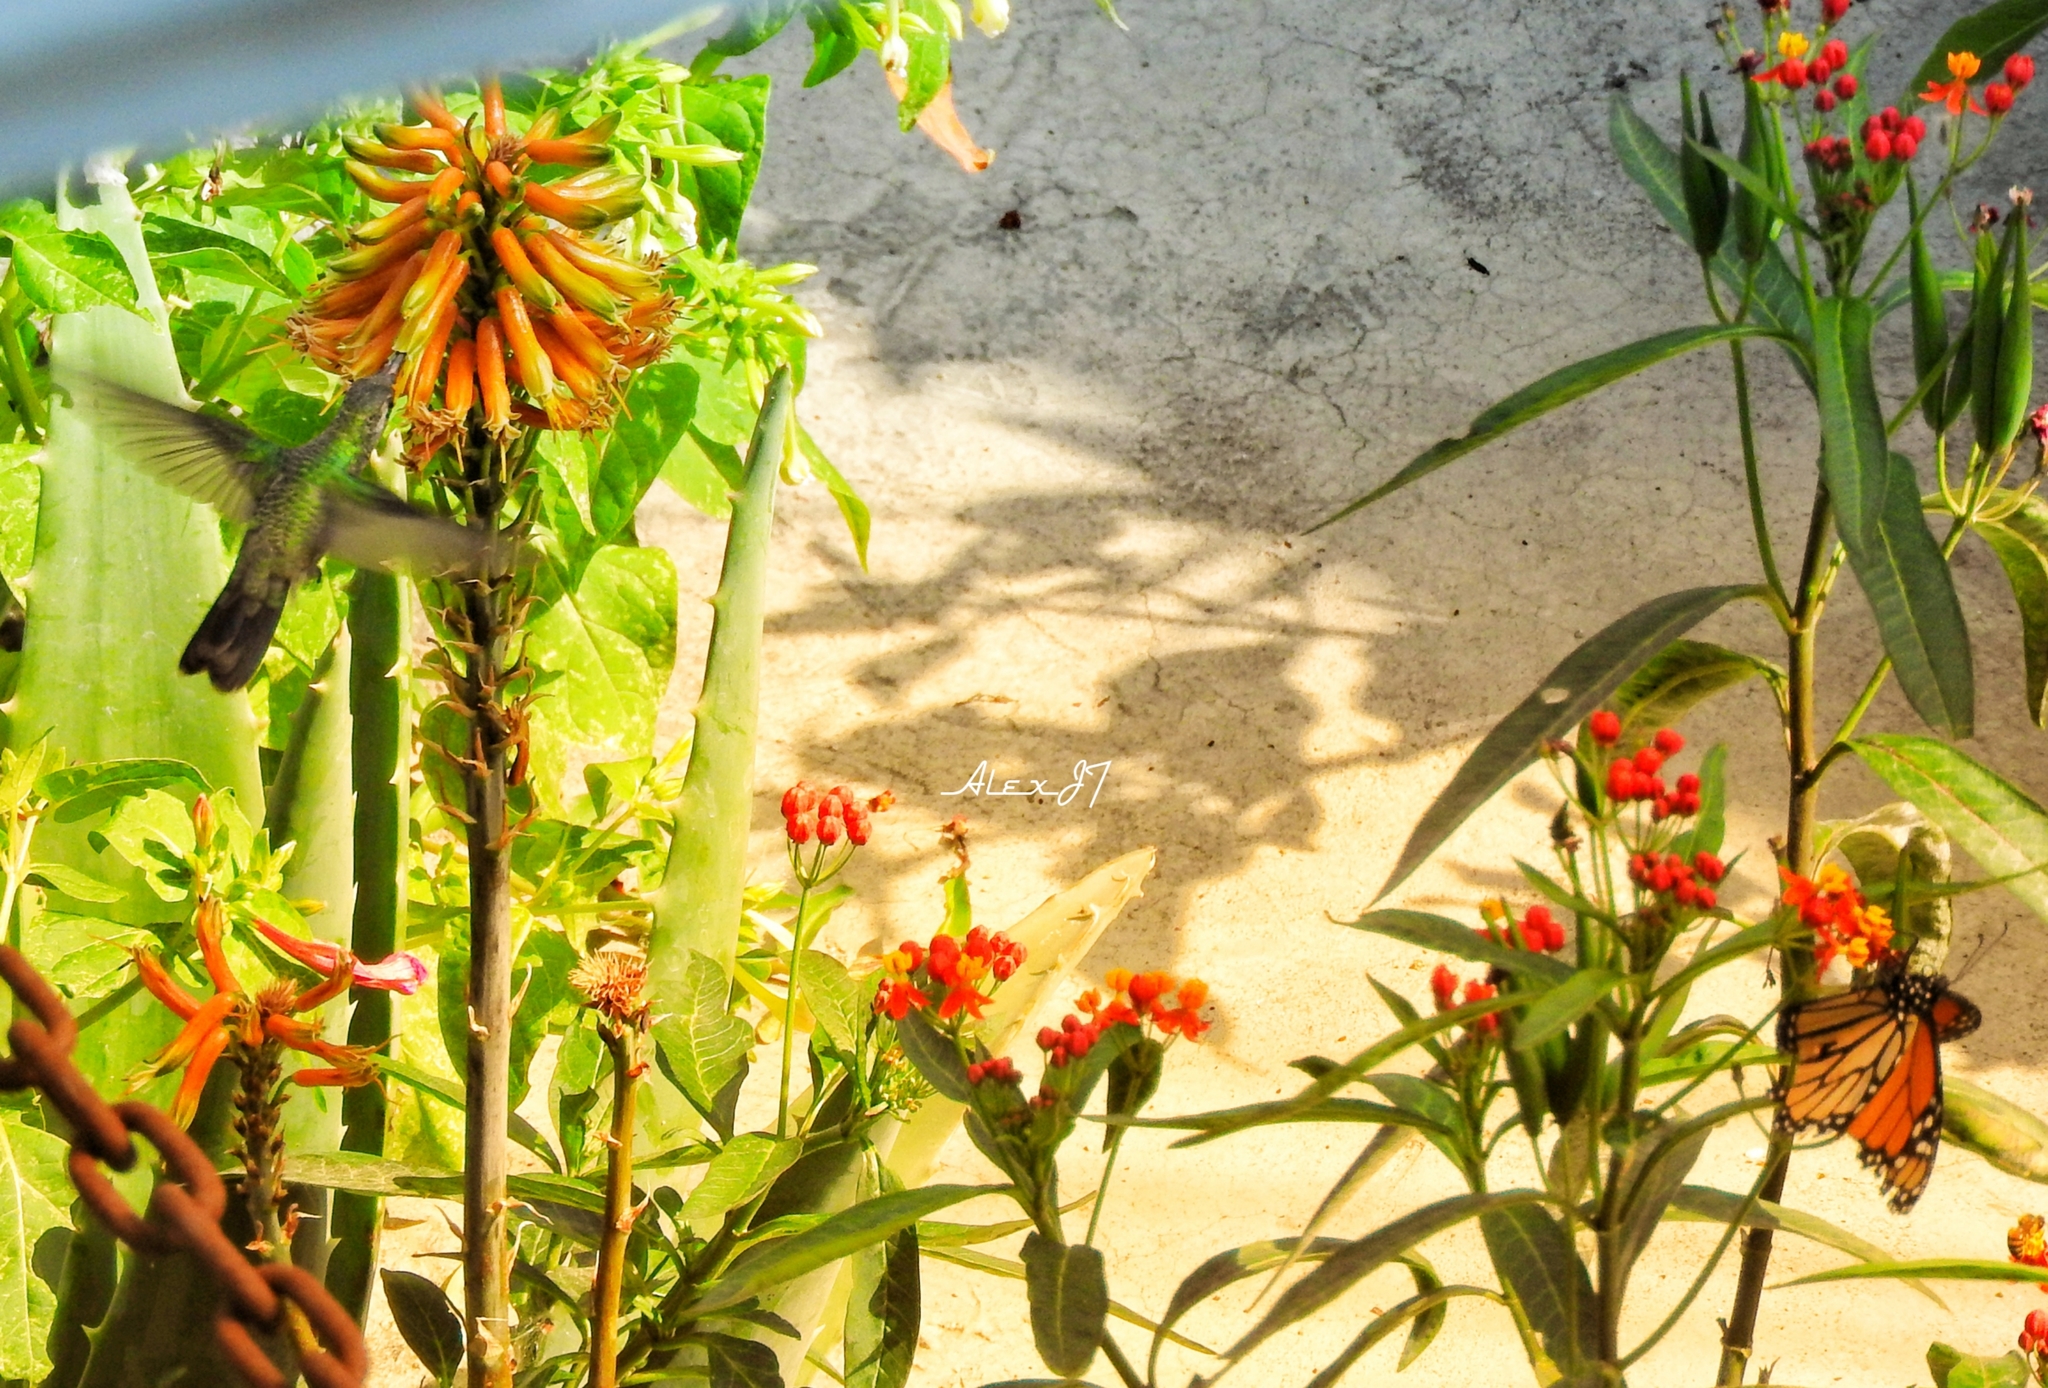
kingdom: Animalia
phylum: Arthropoda
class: Insecta
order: Lepidoptera
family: Nymphalidae
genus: Danaus
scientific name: Danaus plexippus
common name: Monarch
